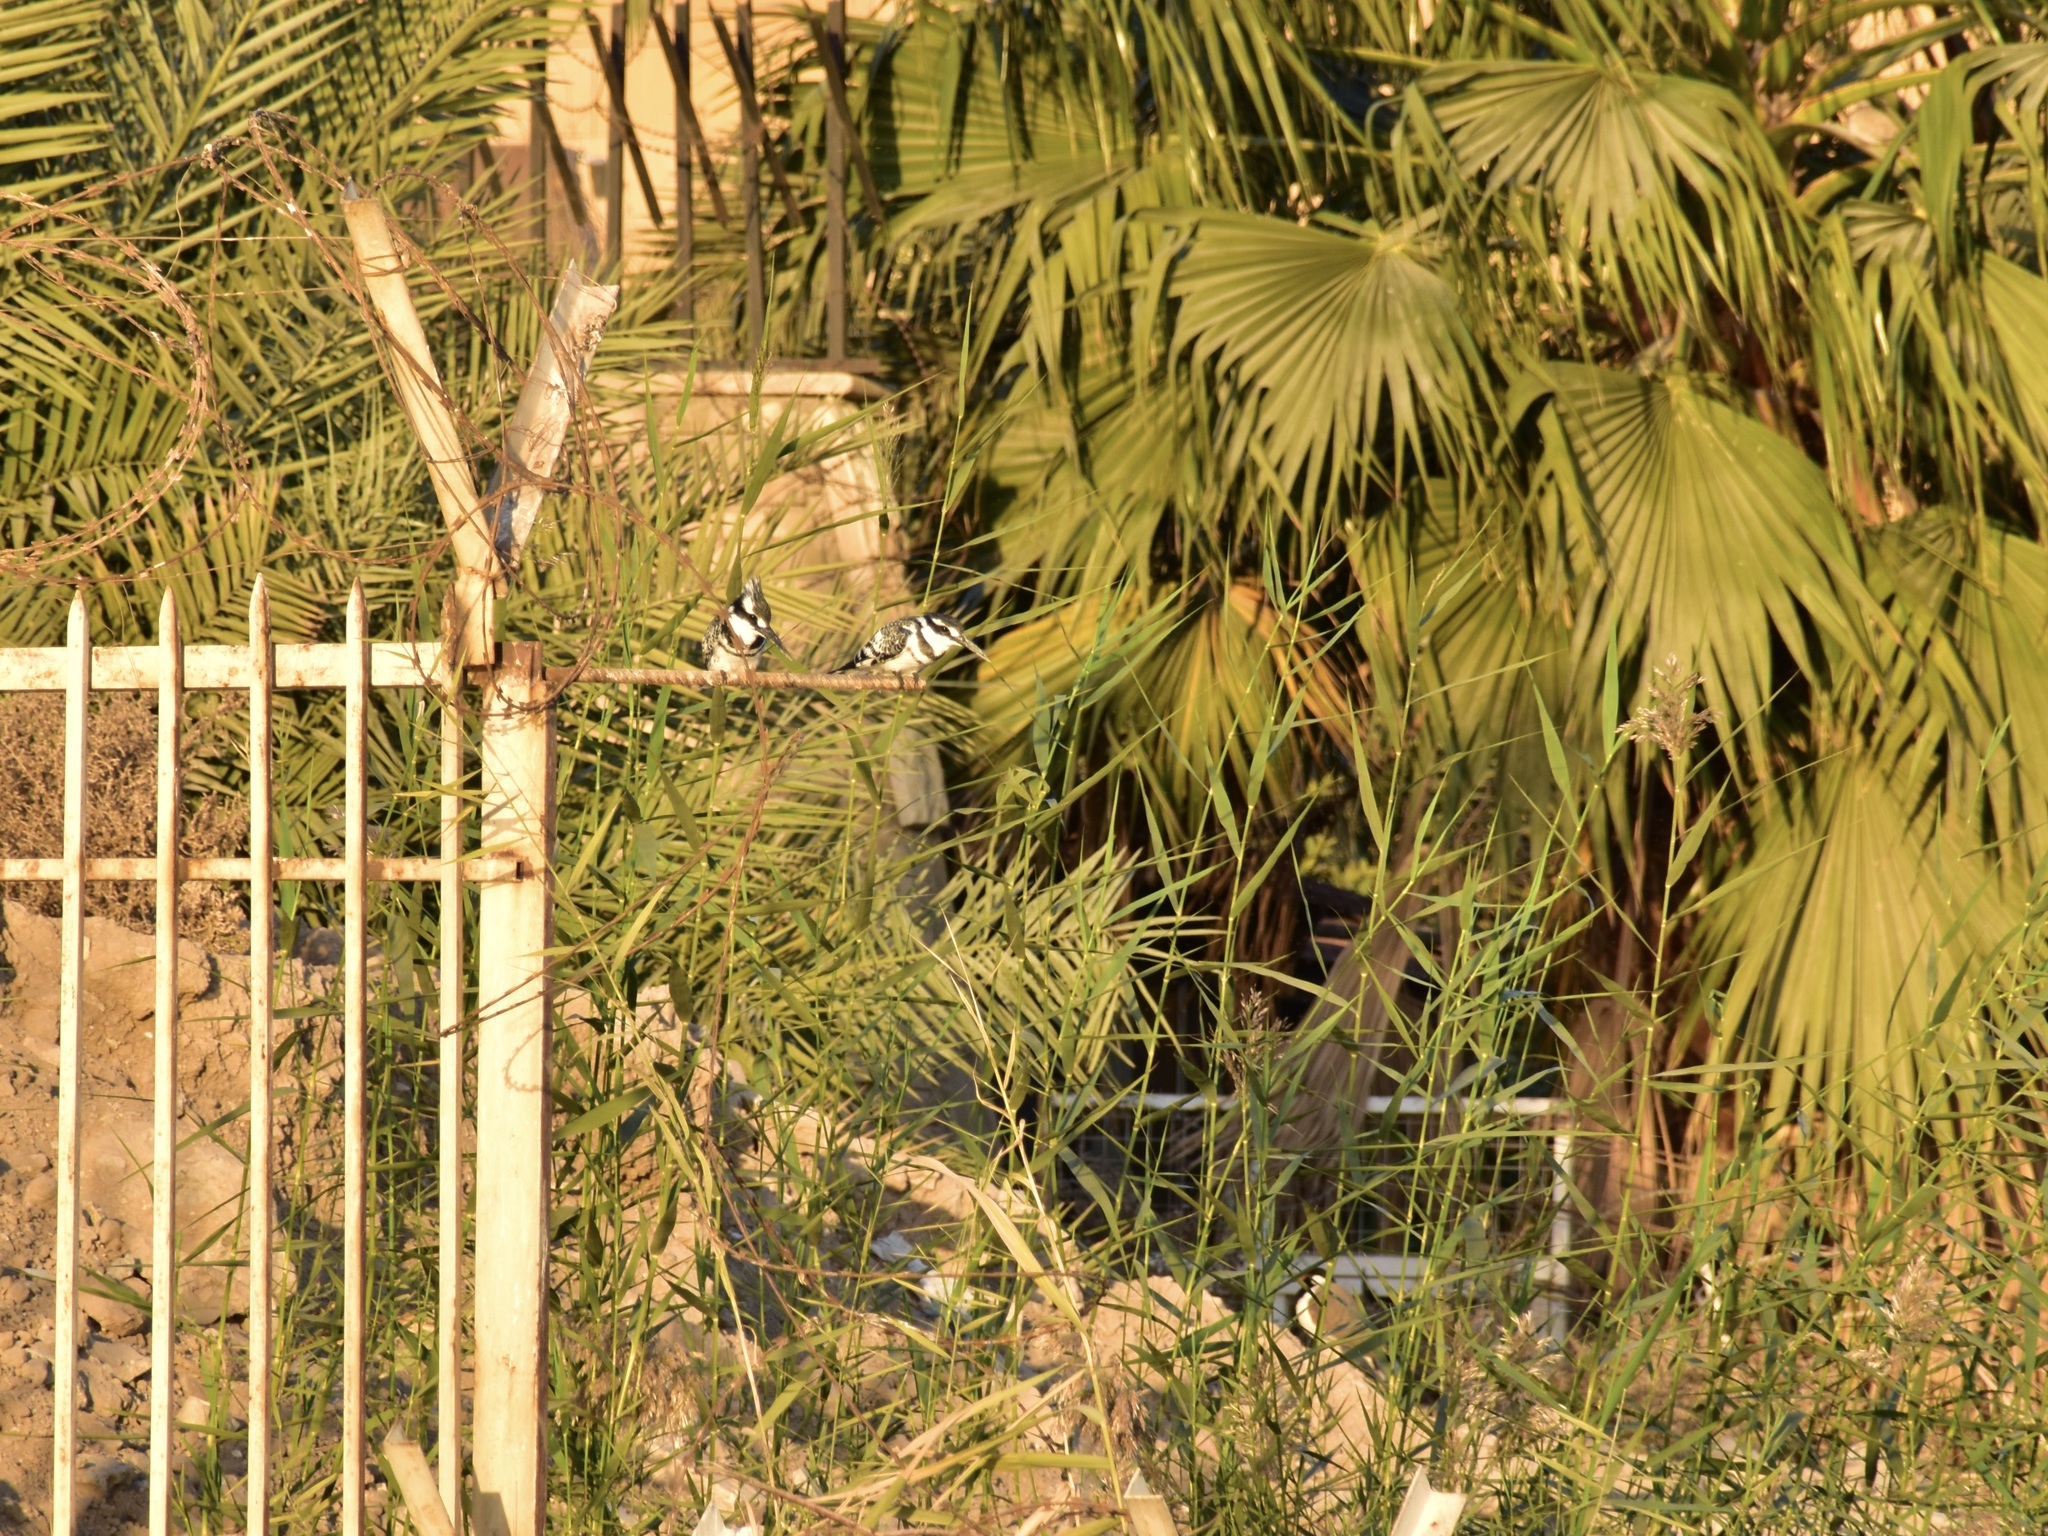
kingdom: Animalia
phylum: Chordata
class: Aves
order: Coraciiformes
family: Alcedinidae
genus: Ceryle
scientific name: Ceryle rudis
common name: Pied kingfisher
